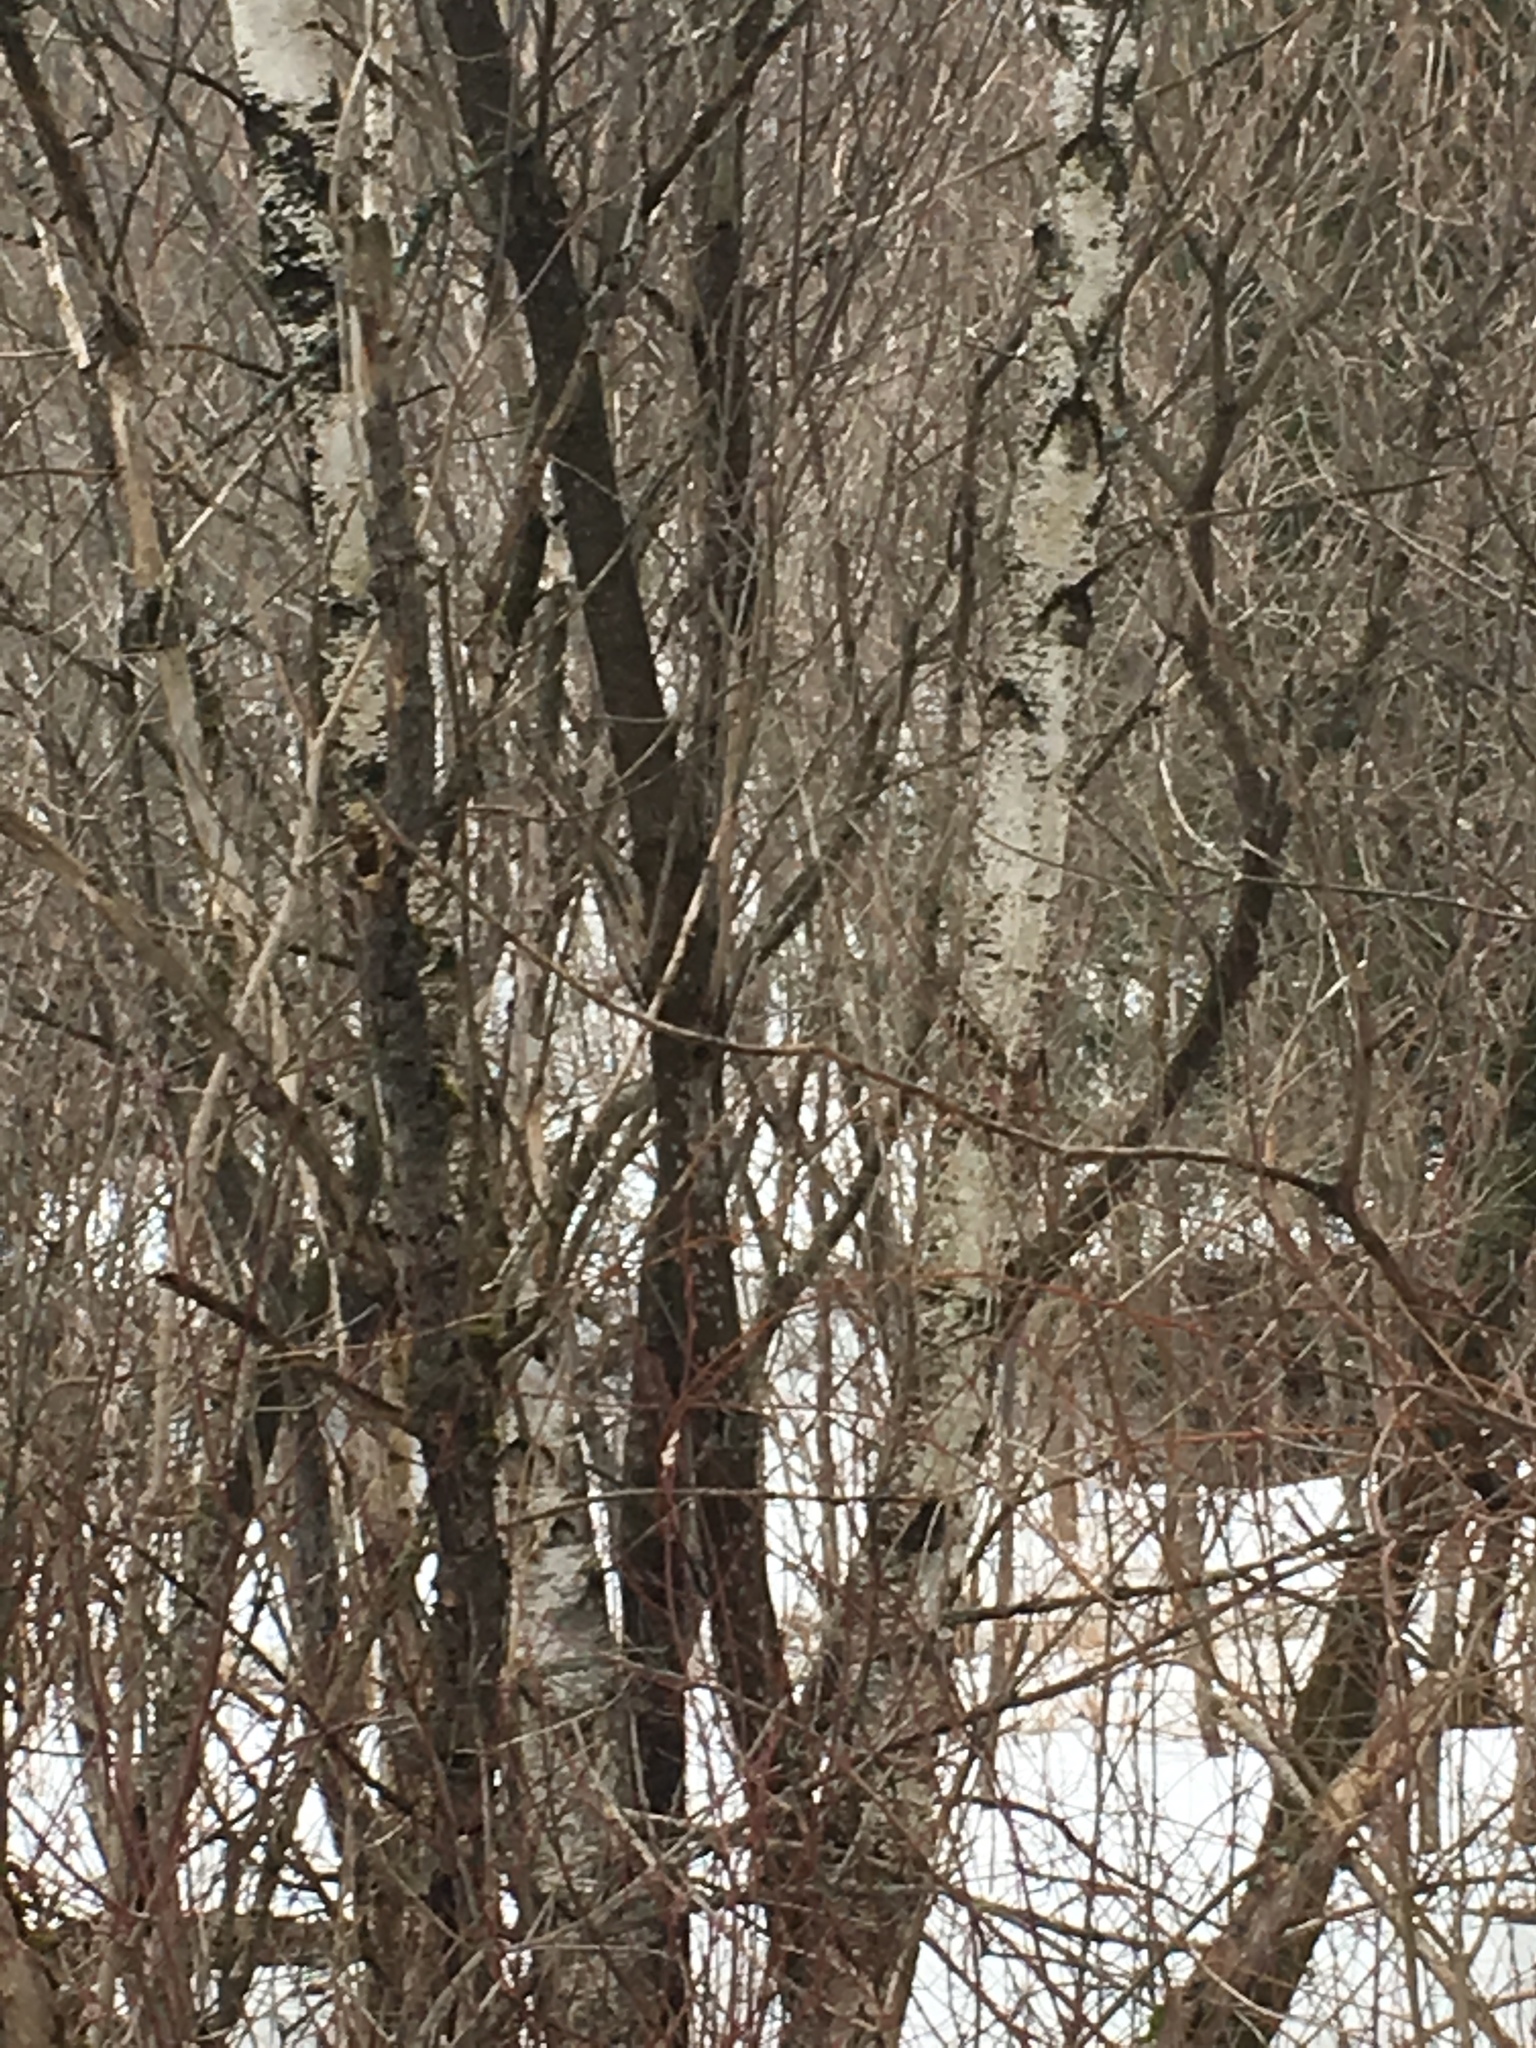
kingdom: Plantae
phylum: Tracheophyta
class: Magnoliopsida
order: Fagales
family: Betulaceae
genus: Betula
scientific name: Betula populifolia
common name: Fire birch
